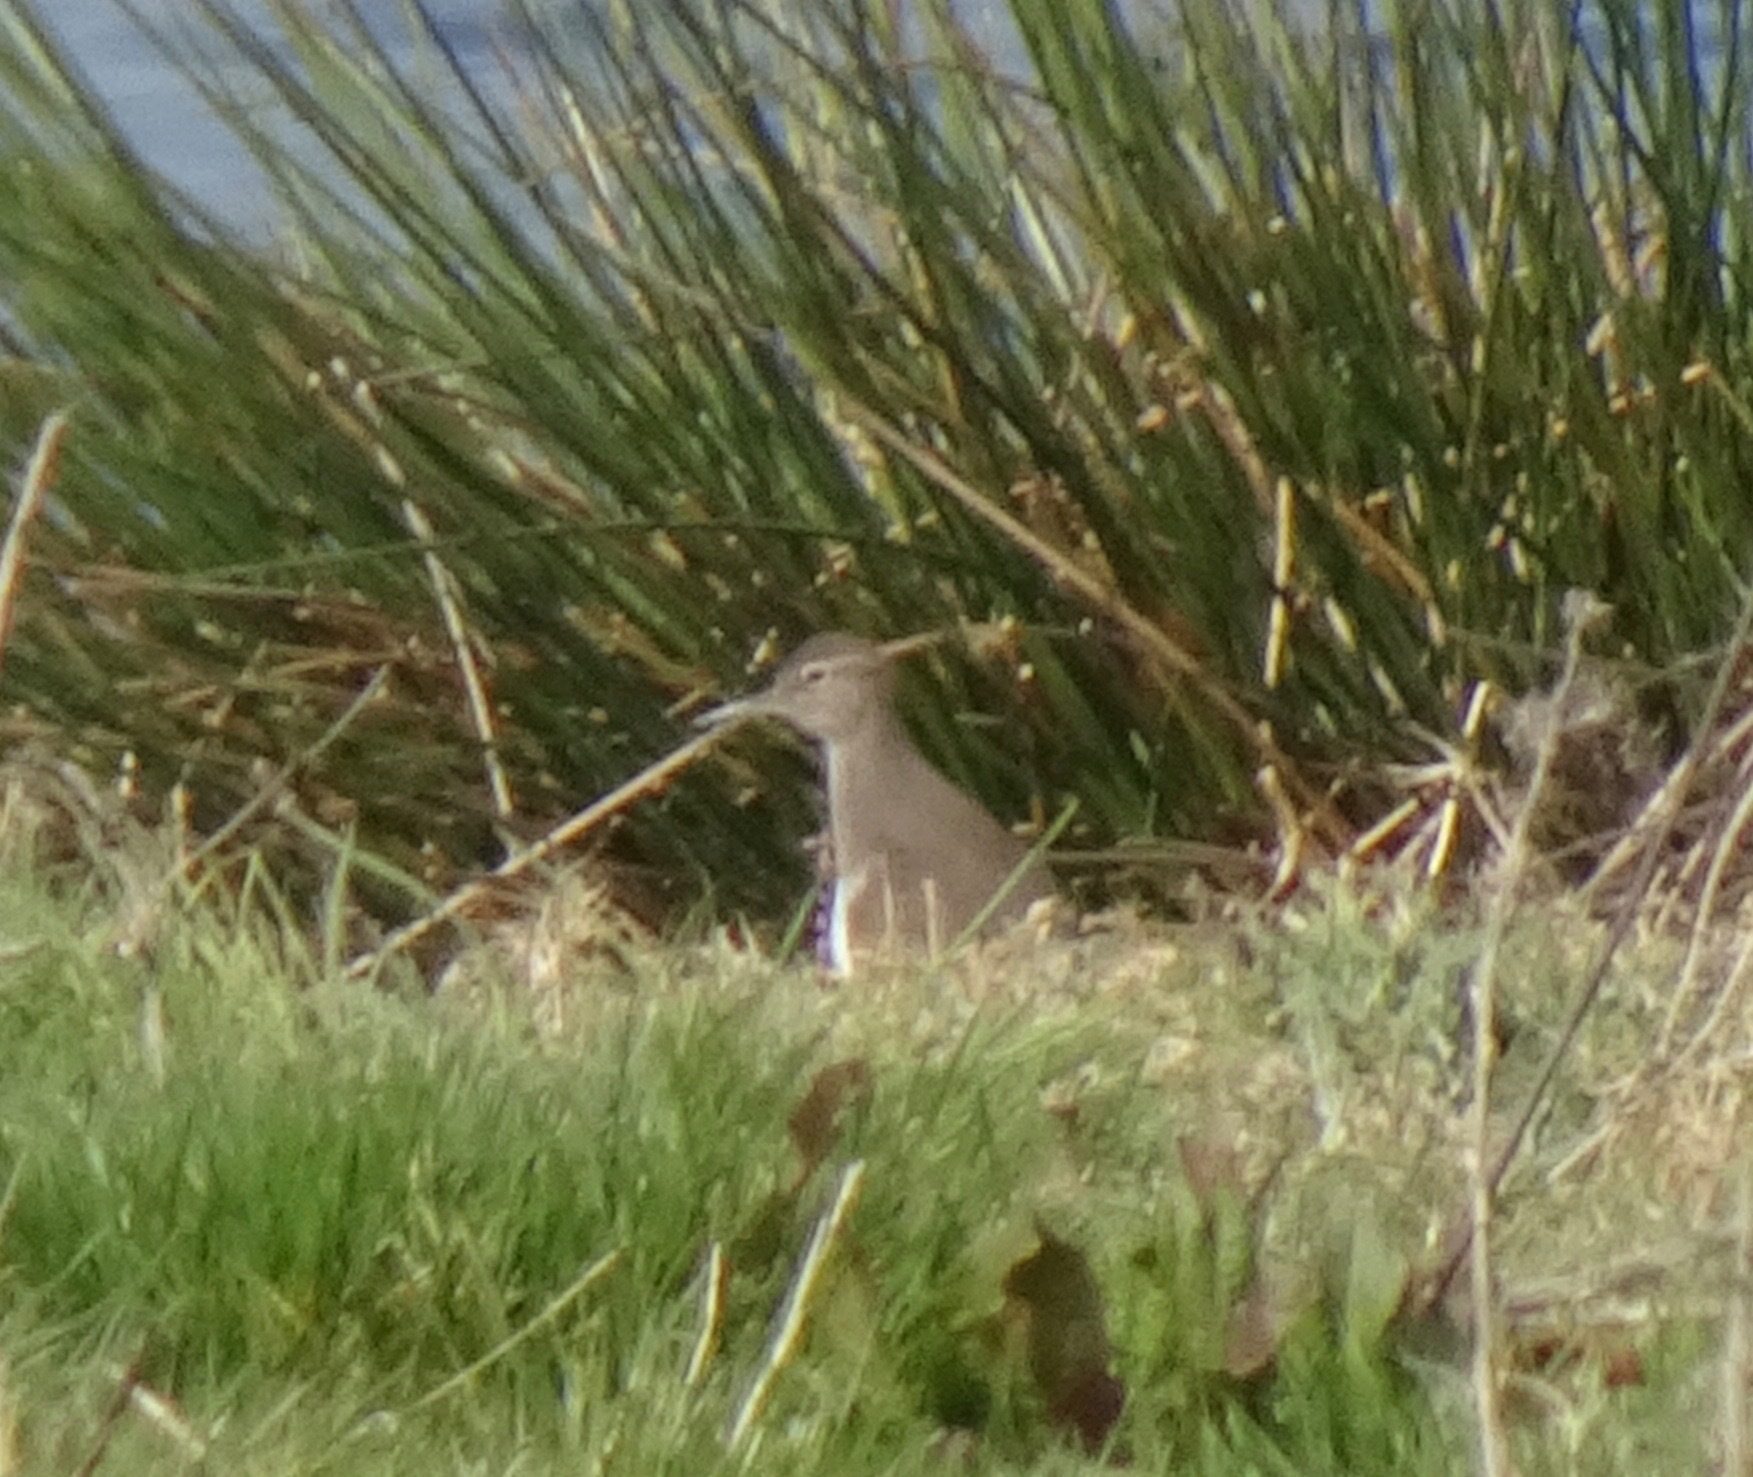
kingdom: Animalia
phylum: Chordata
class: Aves
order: Charadriiformes
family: Scolopacidae
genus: Actitis
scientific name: Actitis hypoleucos
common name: Common sandpiper
